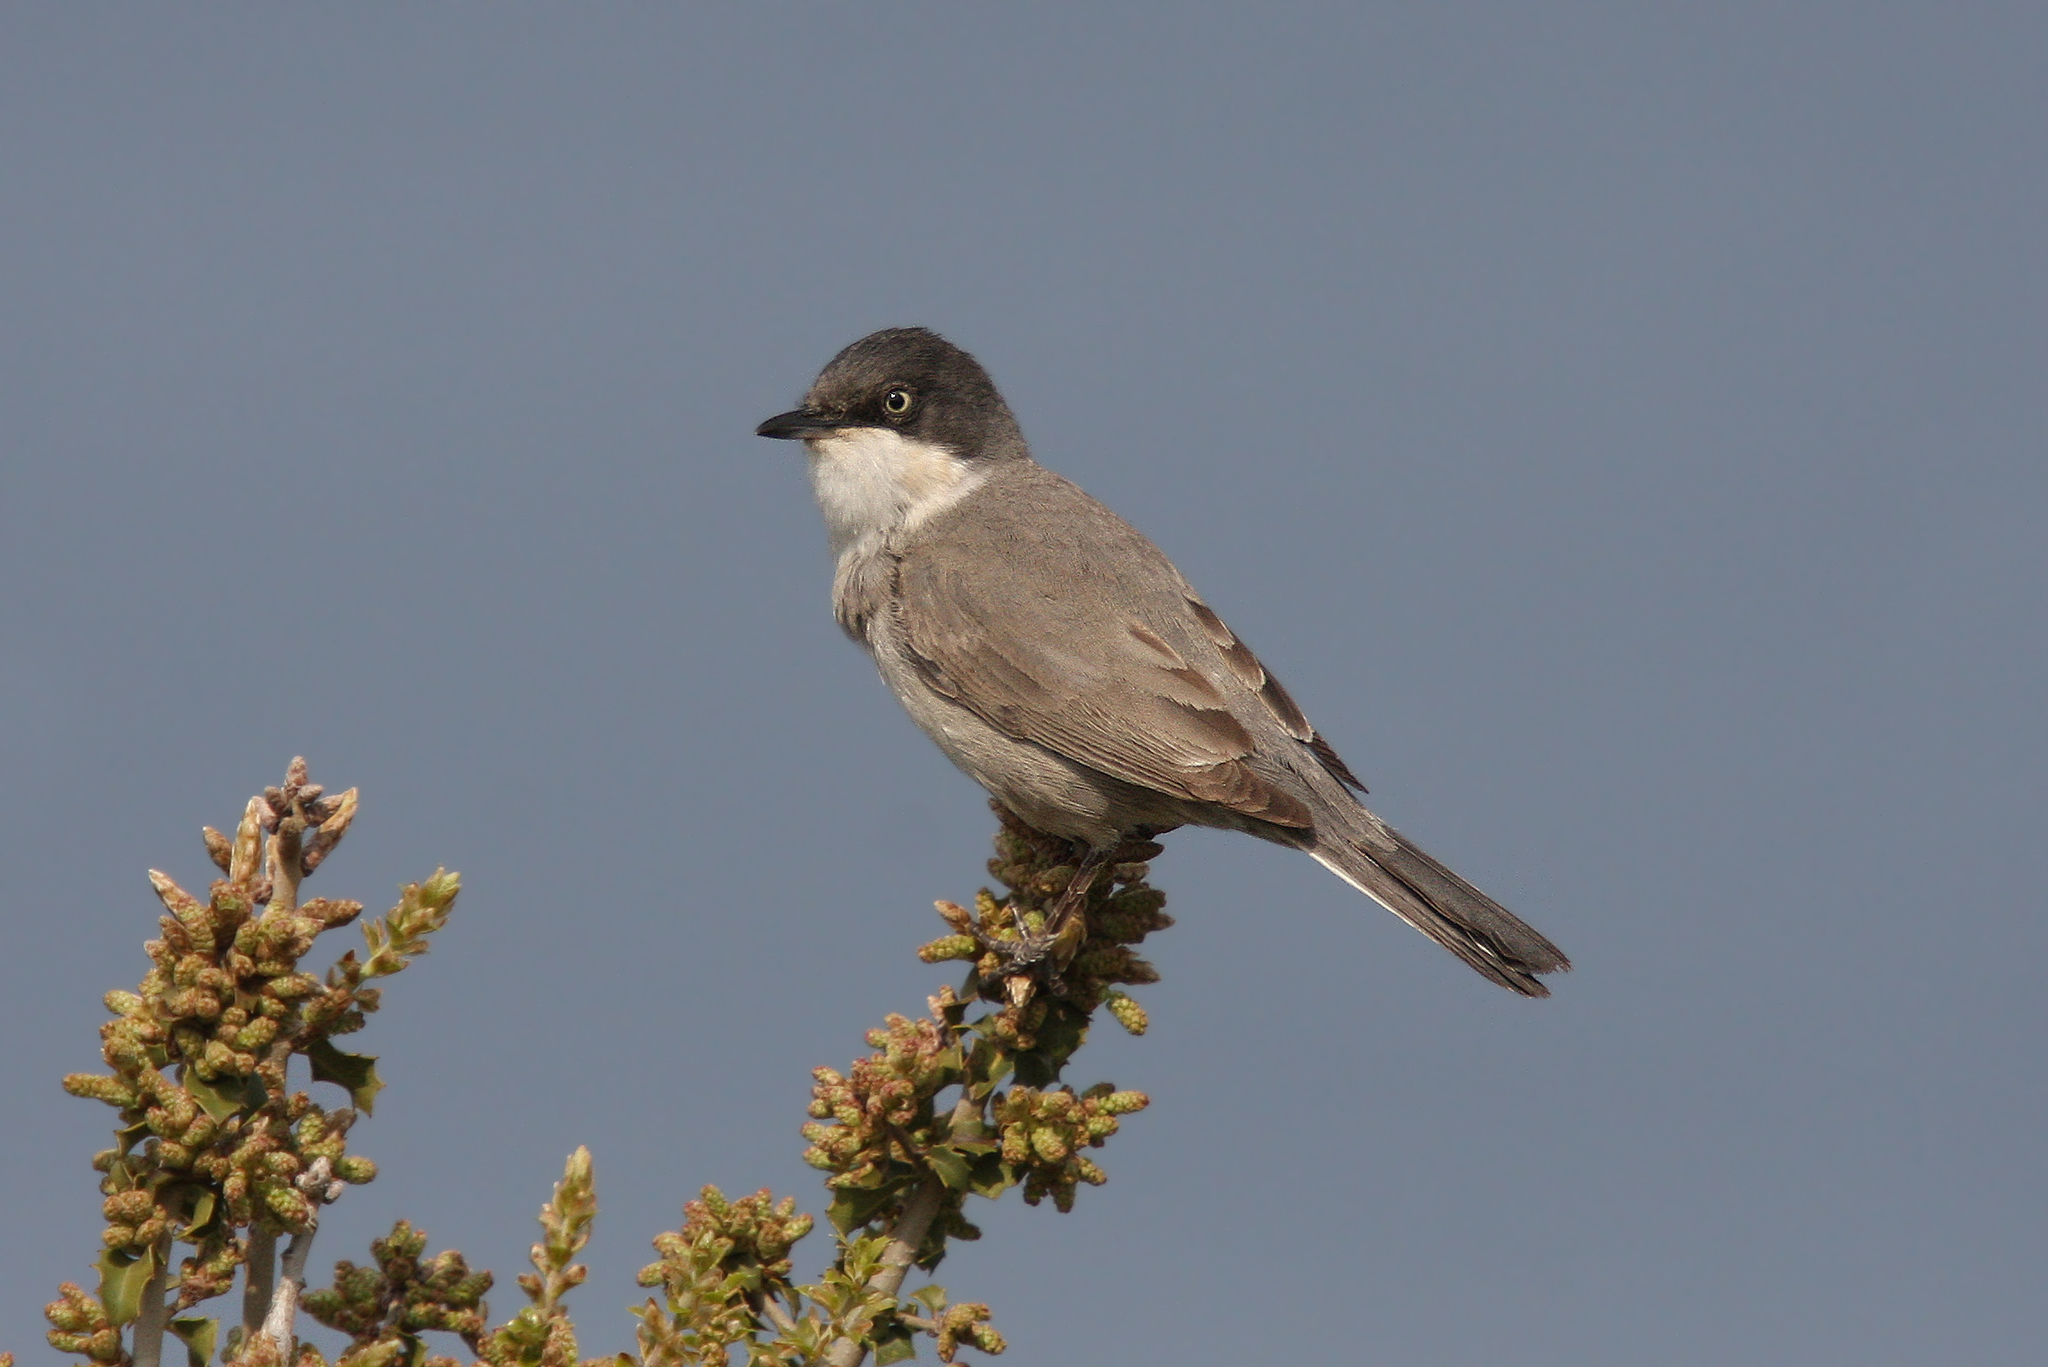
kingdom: Animalia
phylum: Chordata
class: Aves
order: Passeriformes
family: Sylviidae
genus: Sylvia
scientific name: Sylvia crassirostris
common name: Eastern orphean warbler
